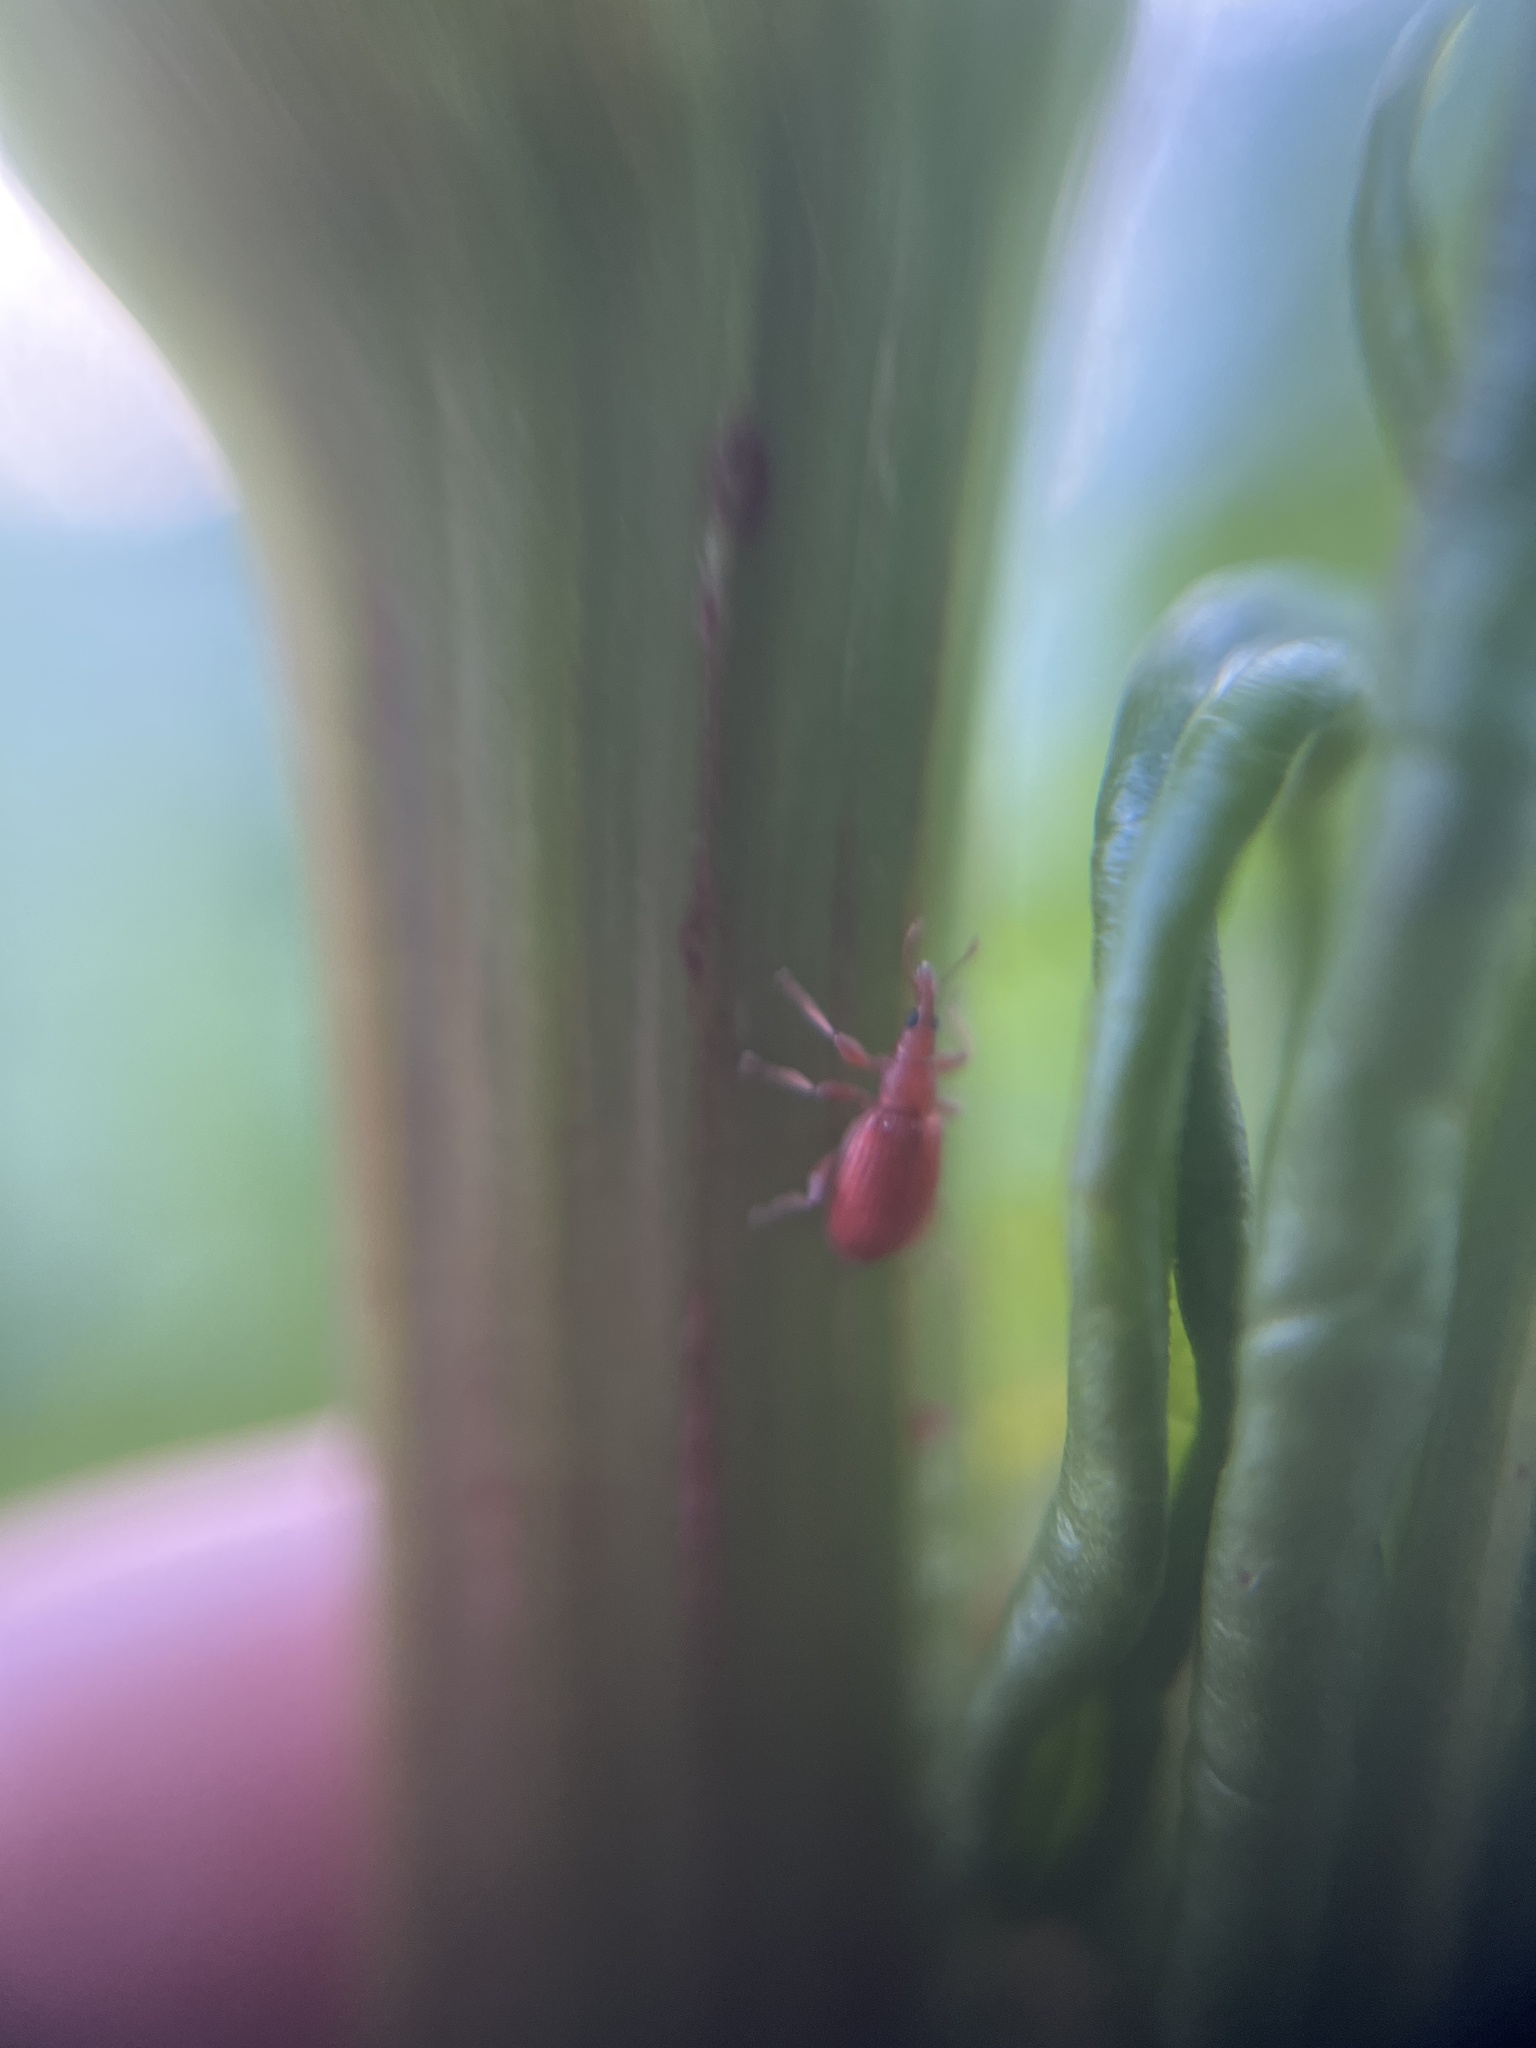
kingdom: Animalia
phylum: Arthropoda
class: Insecta
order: Coleoptera
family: Apionidae
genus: Apion
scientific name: Apion frumentarium
